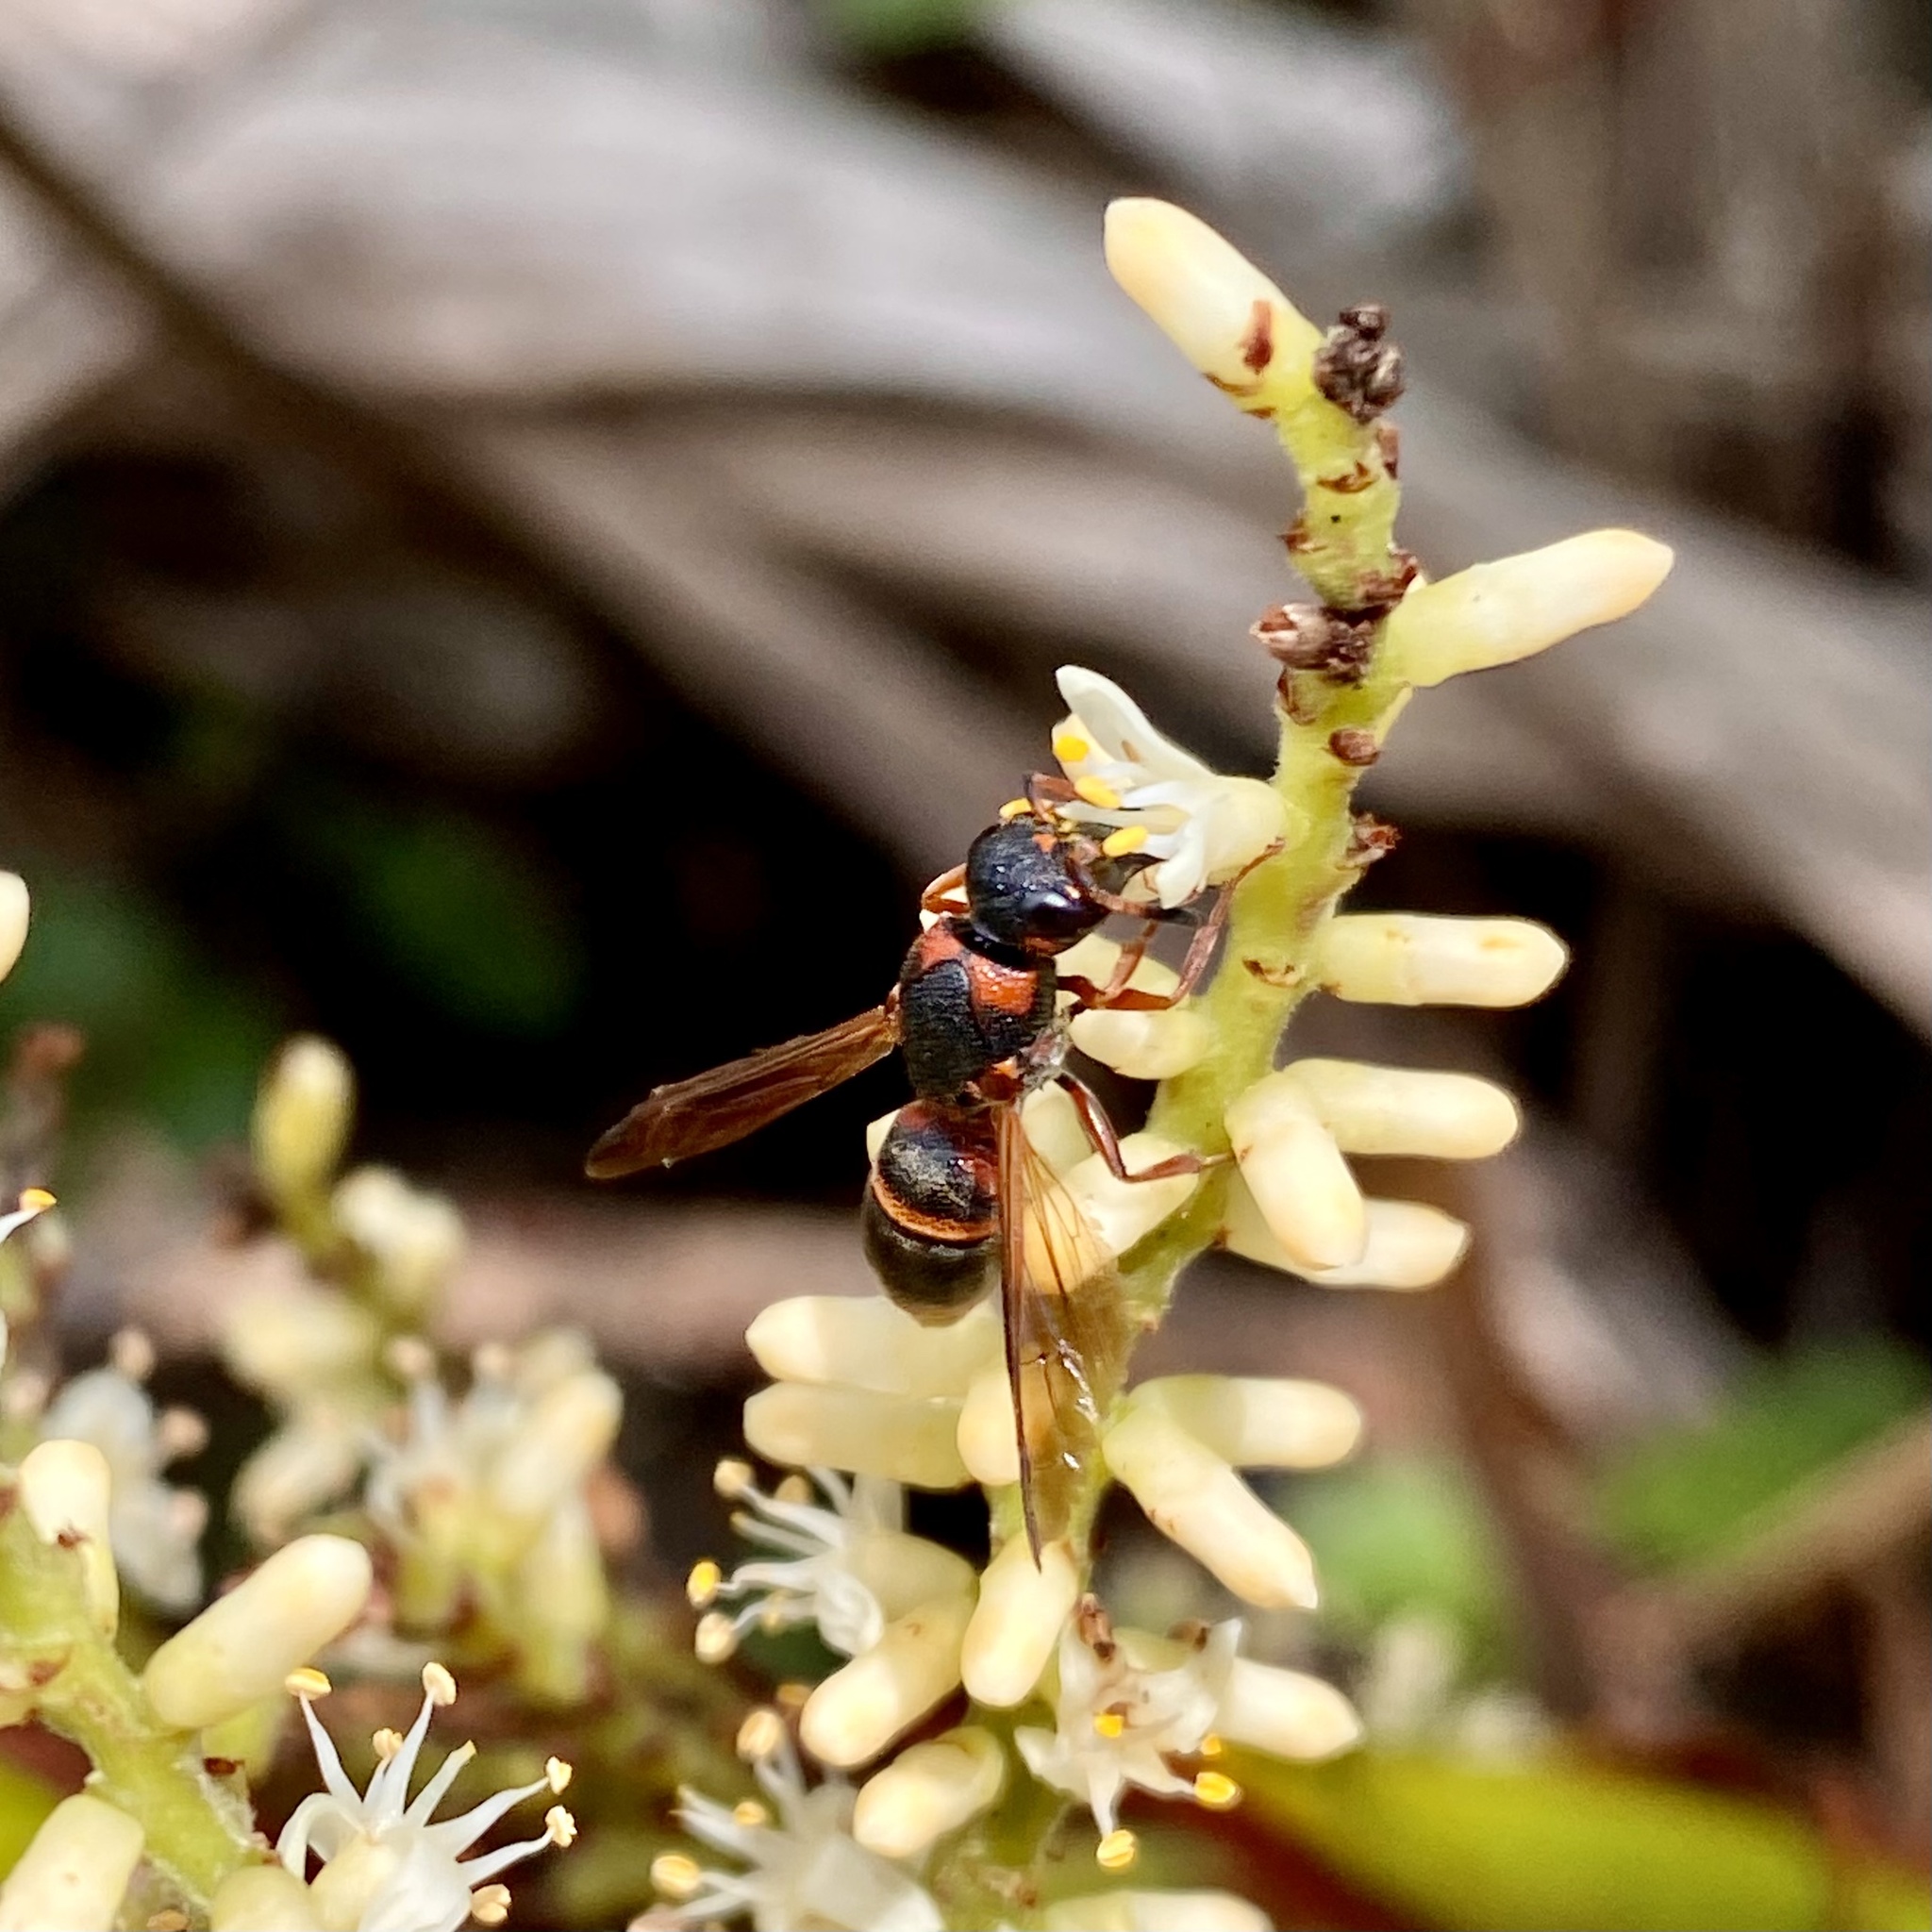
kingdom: Animalia
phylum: Arthropoda
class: Insecta
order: Hymenoptera
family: Eumenidae
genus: Parancistrocerus
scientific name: Parancistrocerus fulvipes
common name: Potter wasp
